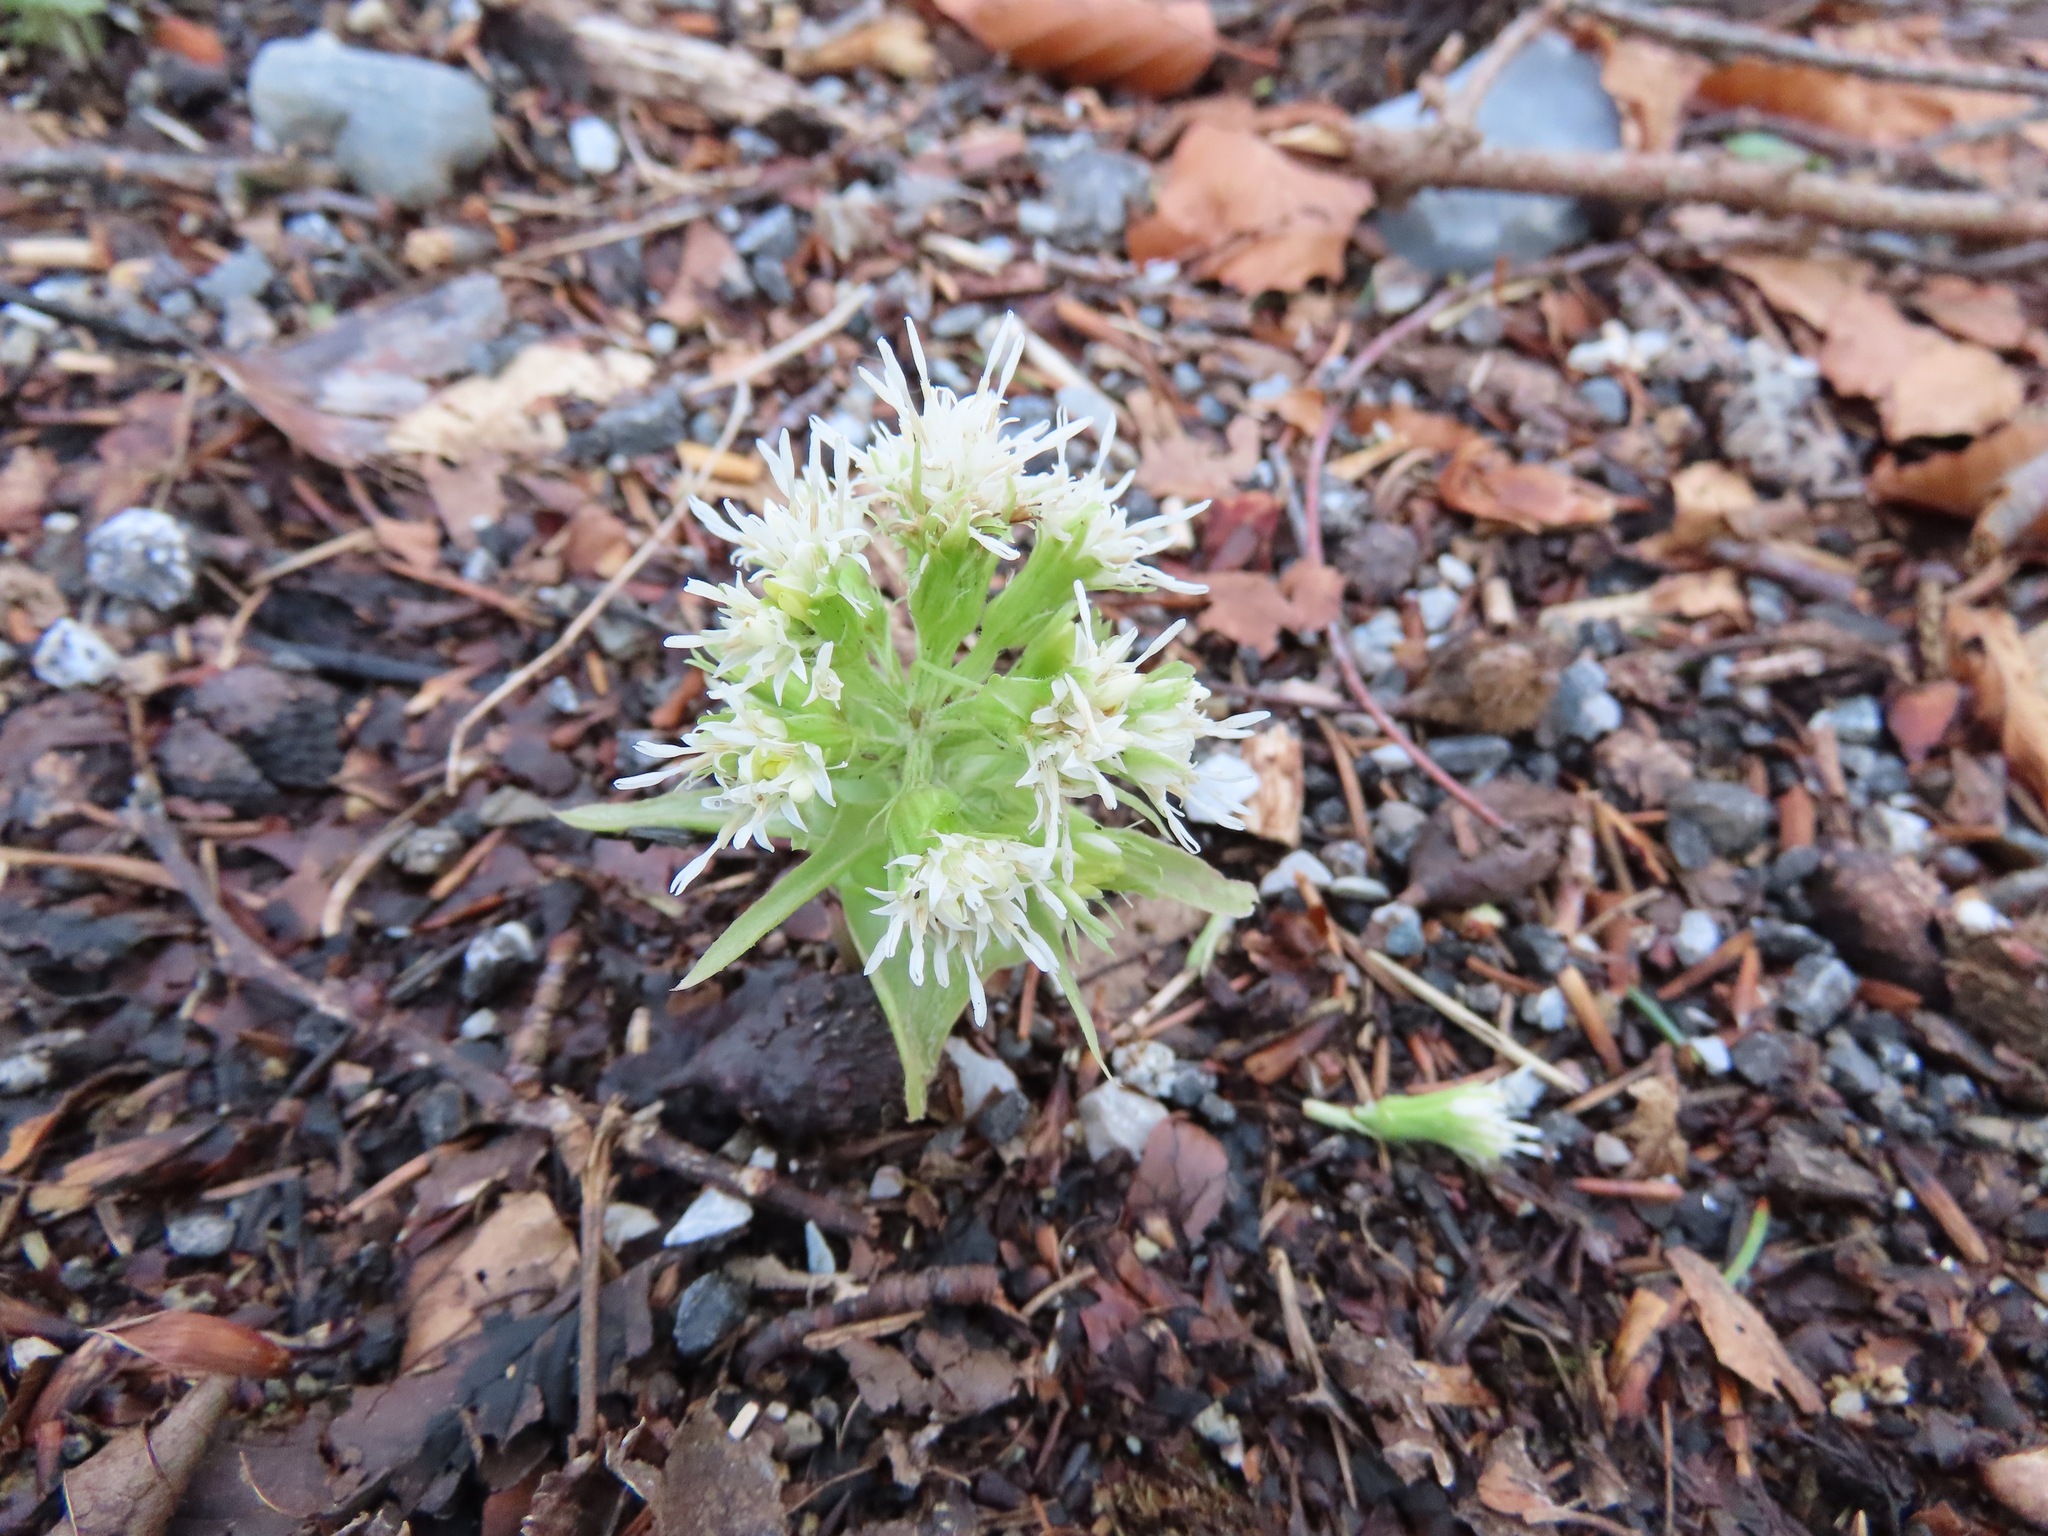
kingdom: Plantae
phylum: Tracheophyta
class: Magnoliopsida
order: Asterales
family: Asteraceae
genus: Petasites
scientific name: Petasites albus
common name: White butterbur
